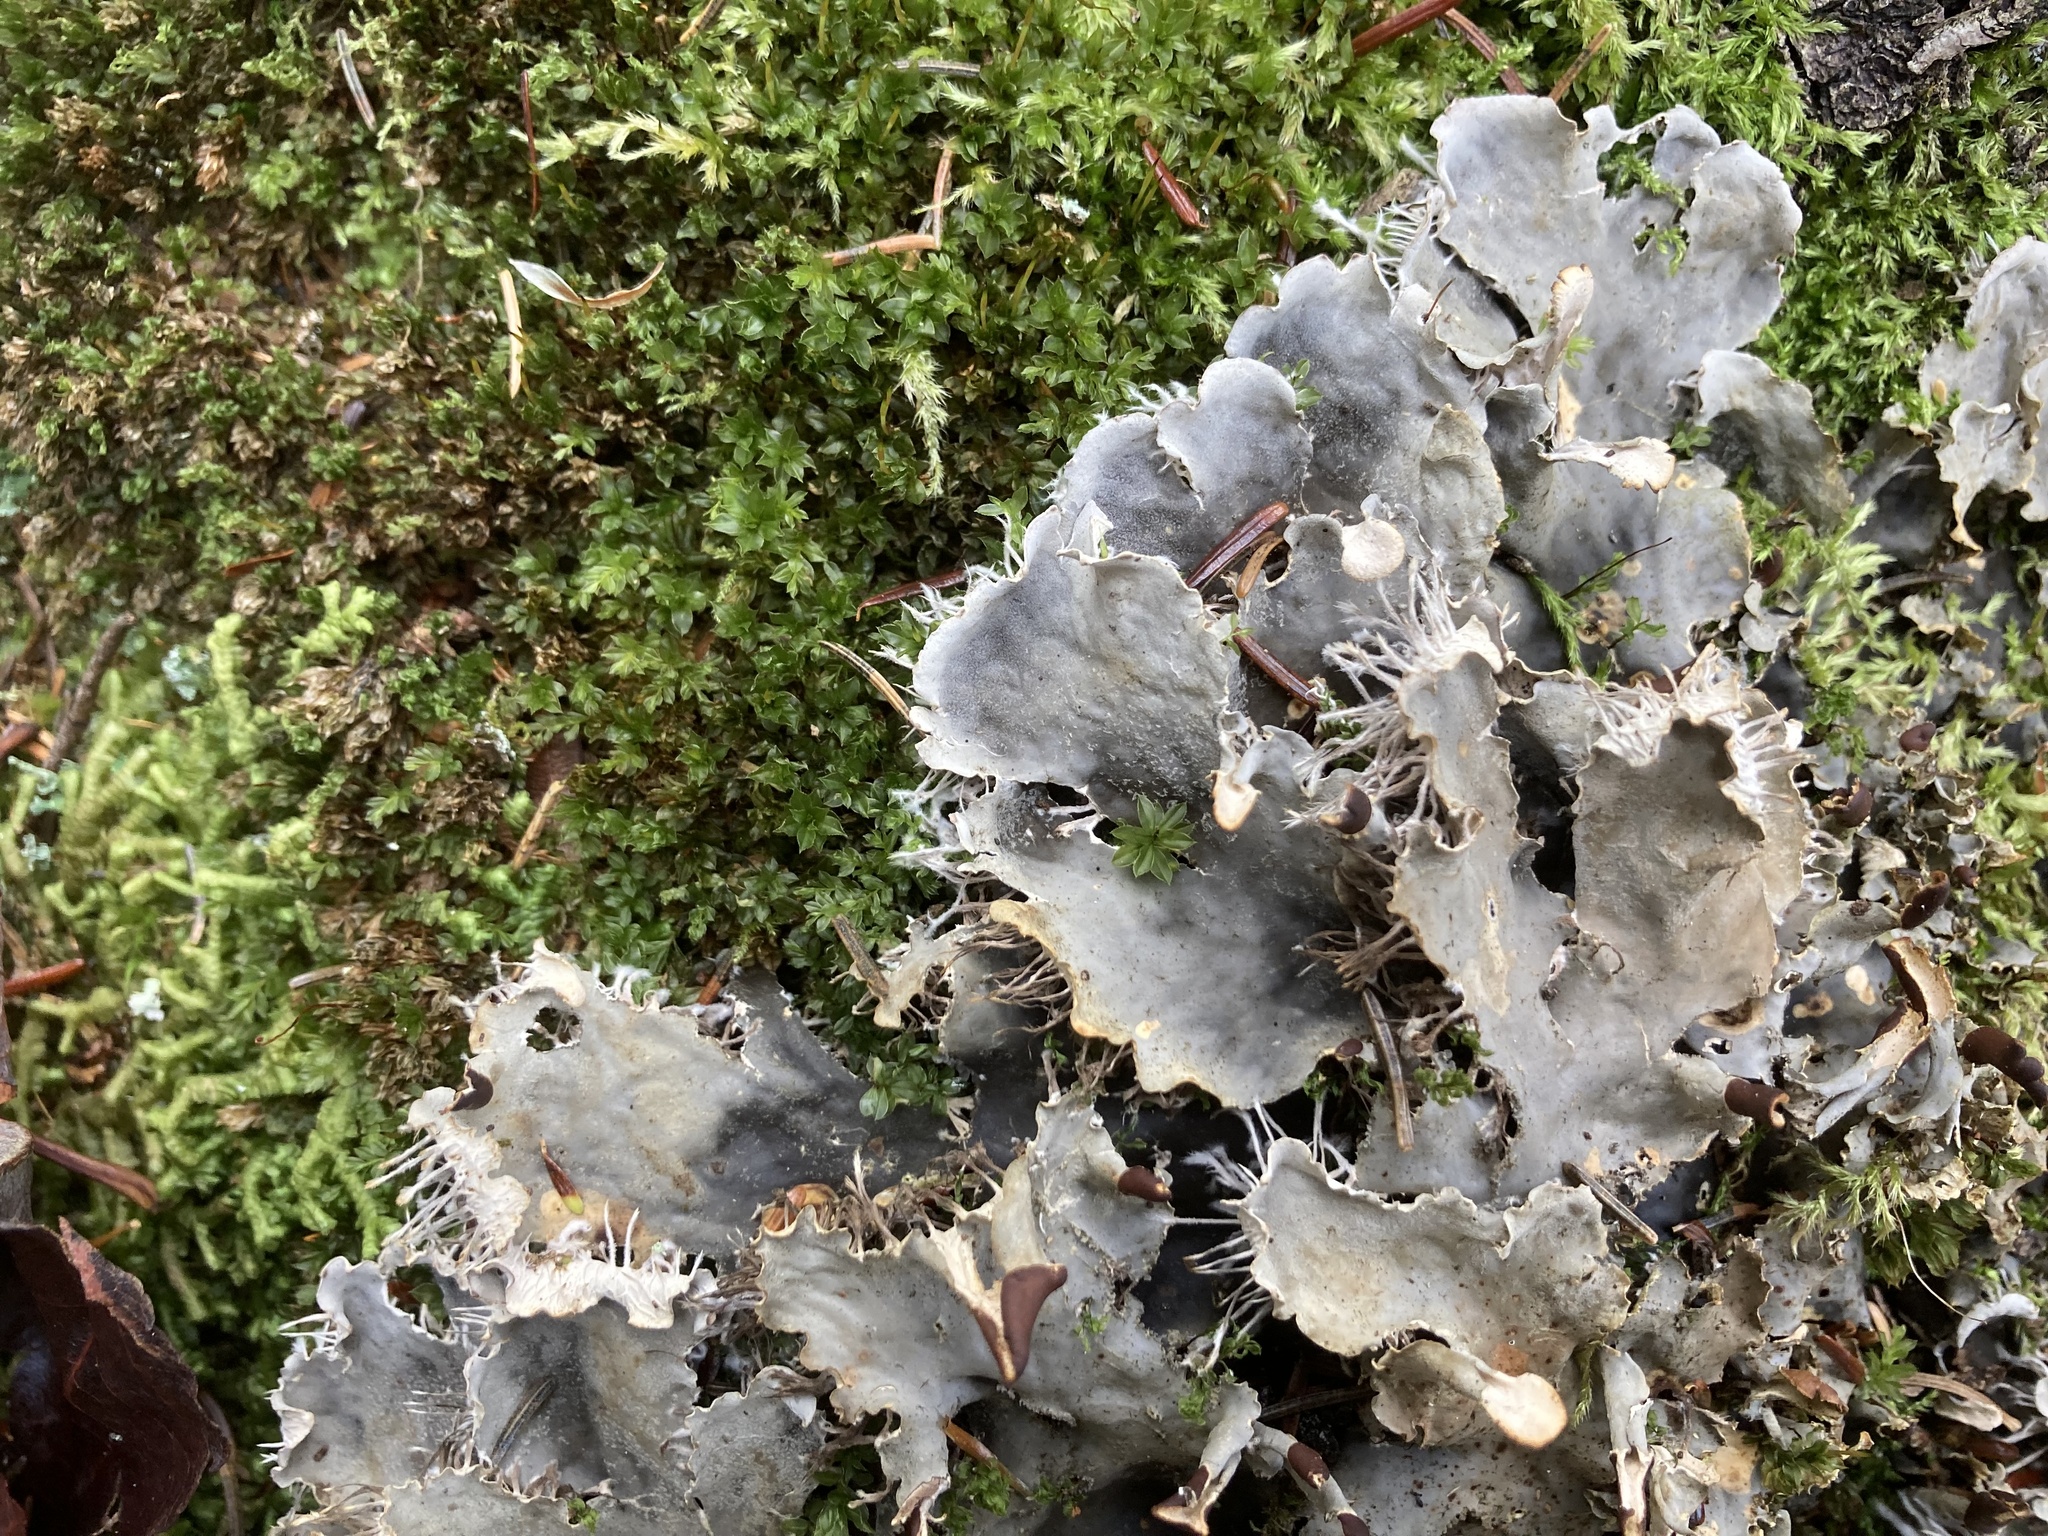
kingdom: Fungi
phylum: Ascomycota
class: Lecanoromycetes
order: Peltigerales
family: Peltigeraceae
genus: Peltigera
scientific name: Peltigera praetextata
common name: Scaly dog-lichen
